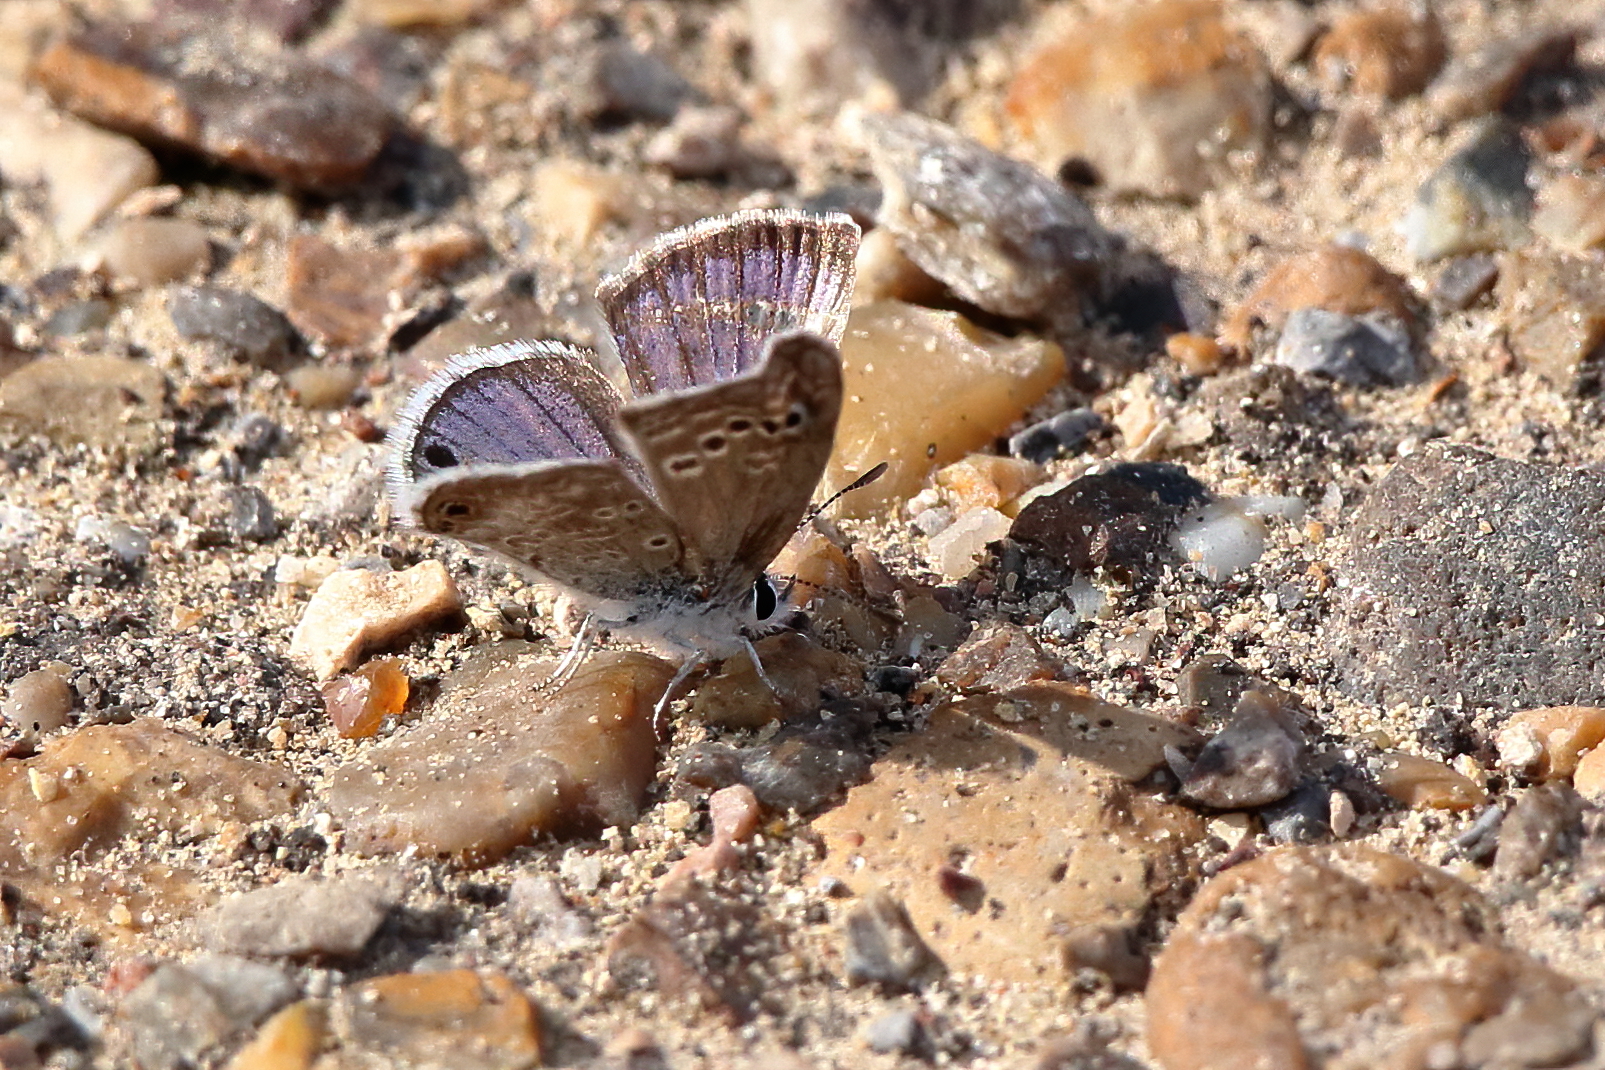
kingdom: Animalia
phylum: Arthropoda
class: Insecta
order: Lepidoptera
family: Lycaenidae
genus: Echinargus
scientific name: Echinargus isola
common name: Reakirt's blue
